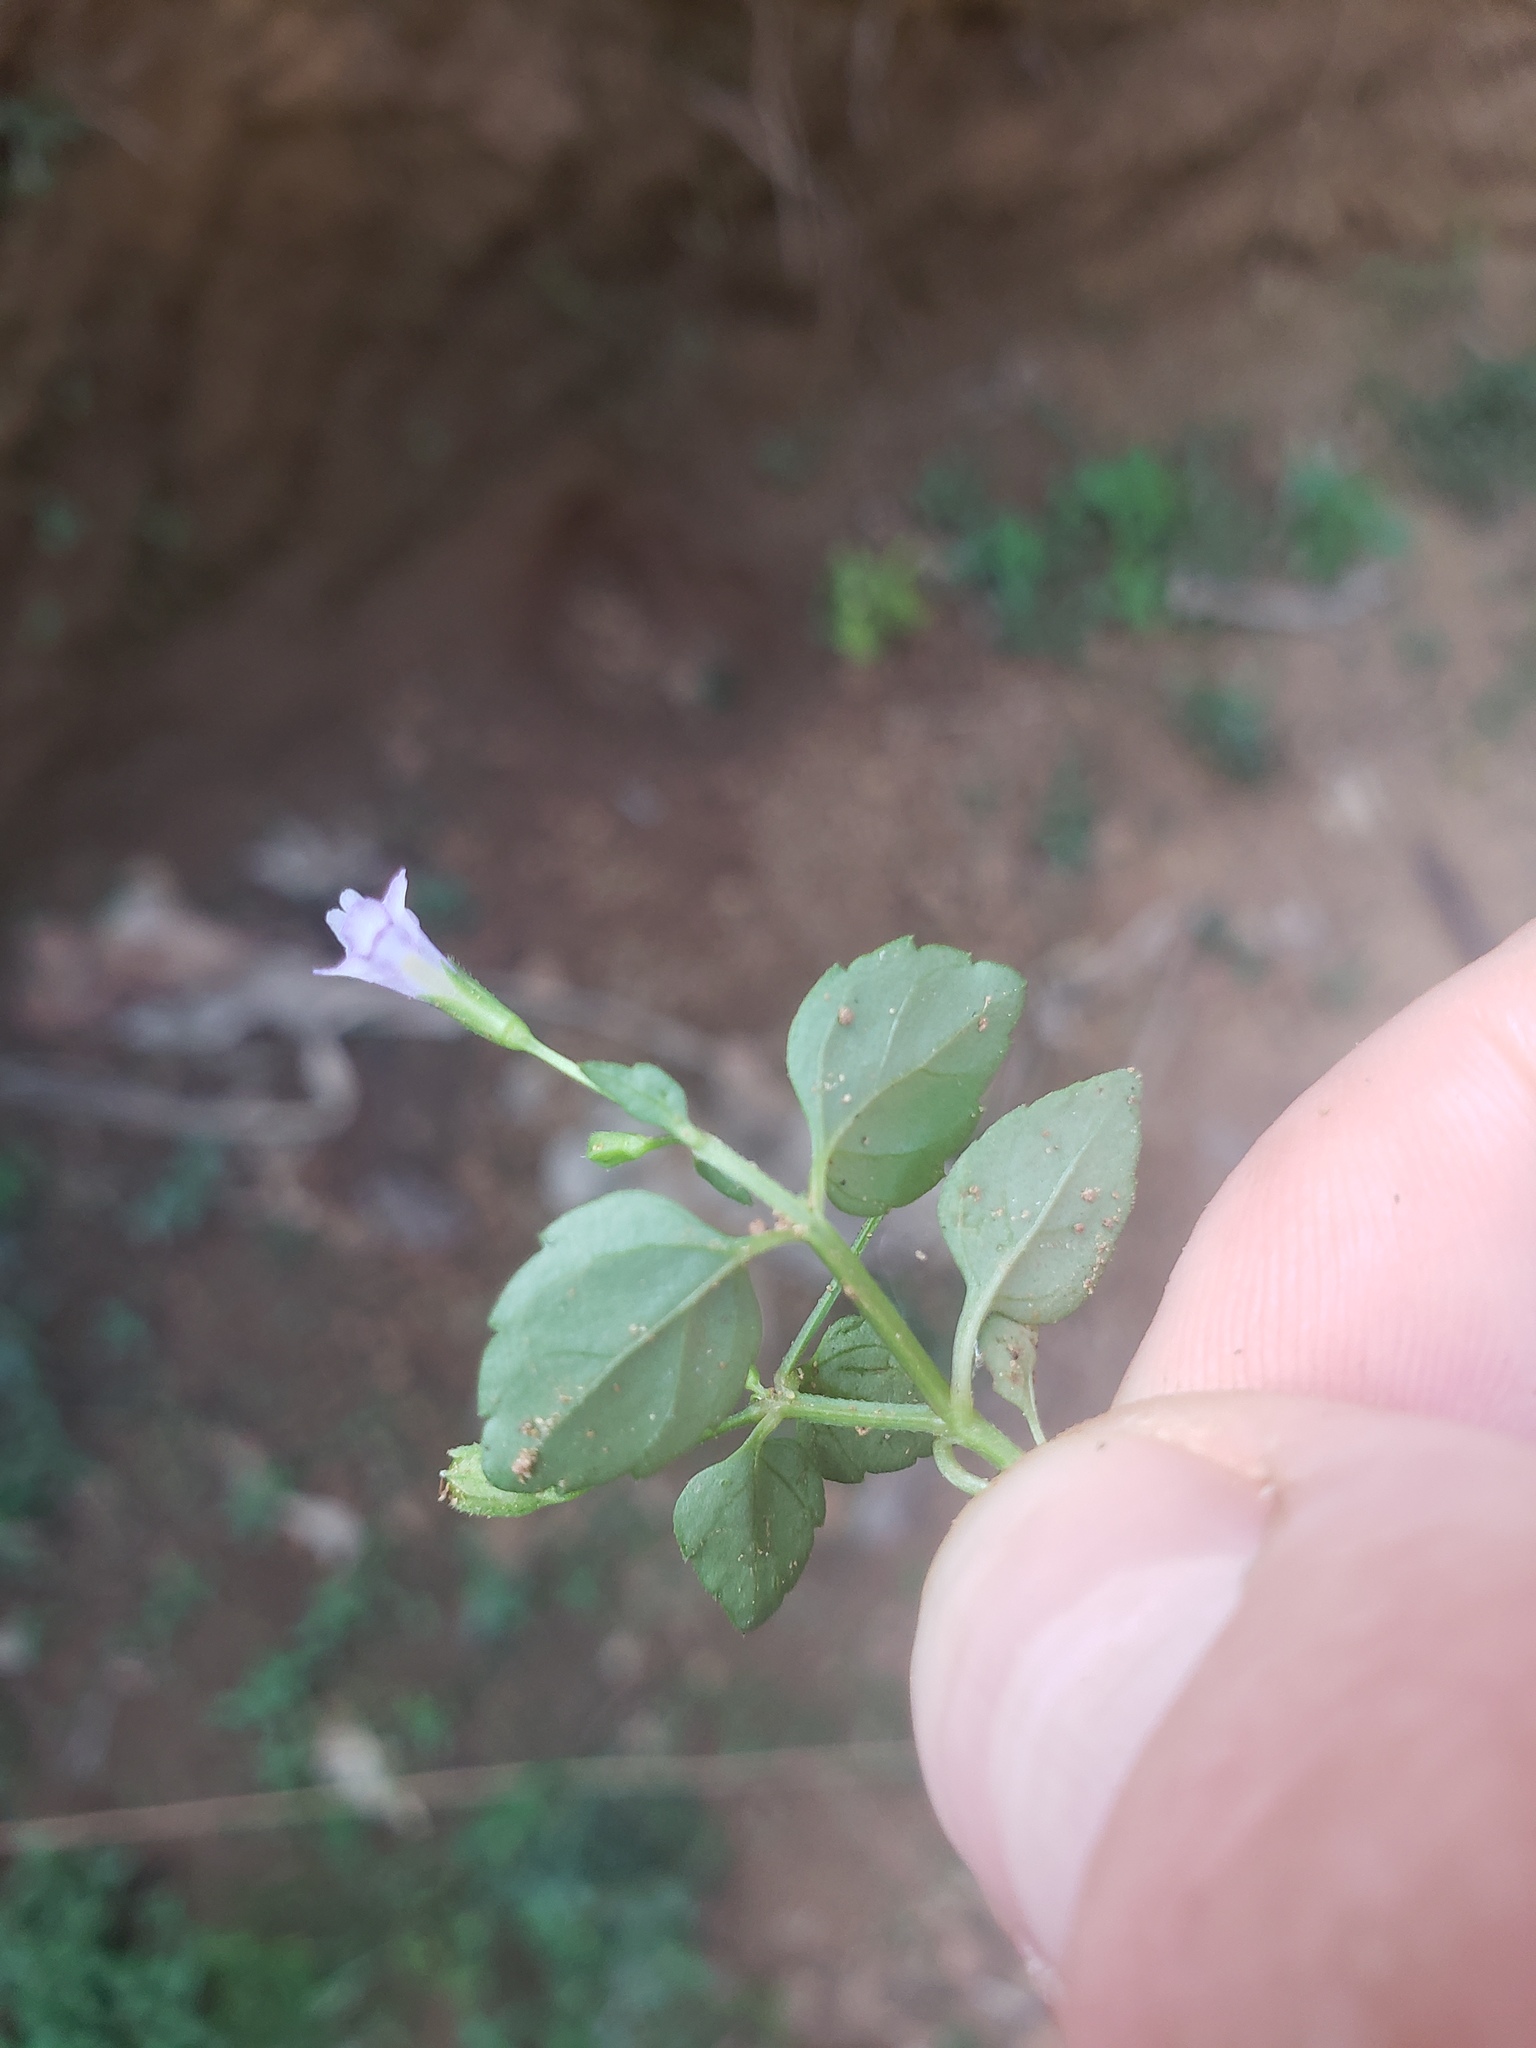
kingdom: Plantae
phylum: Tracheophyta
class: Magnoliopsida
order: Lamiales
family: Linderniaceae
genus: Torenia
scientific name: Torenia crustacea
